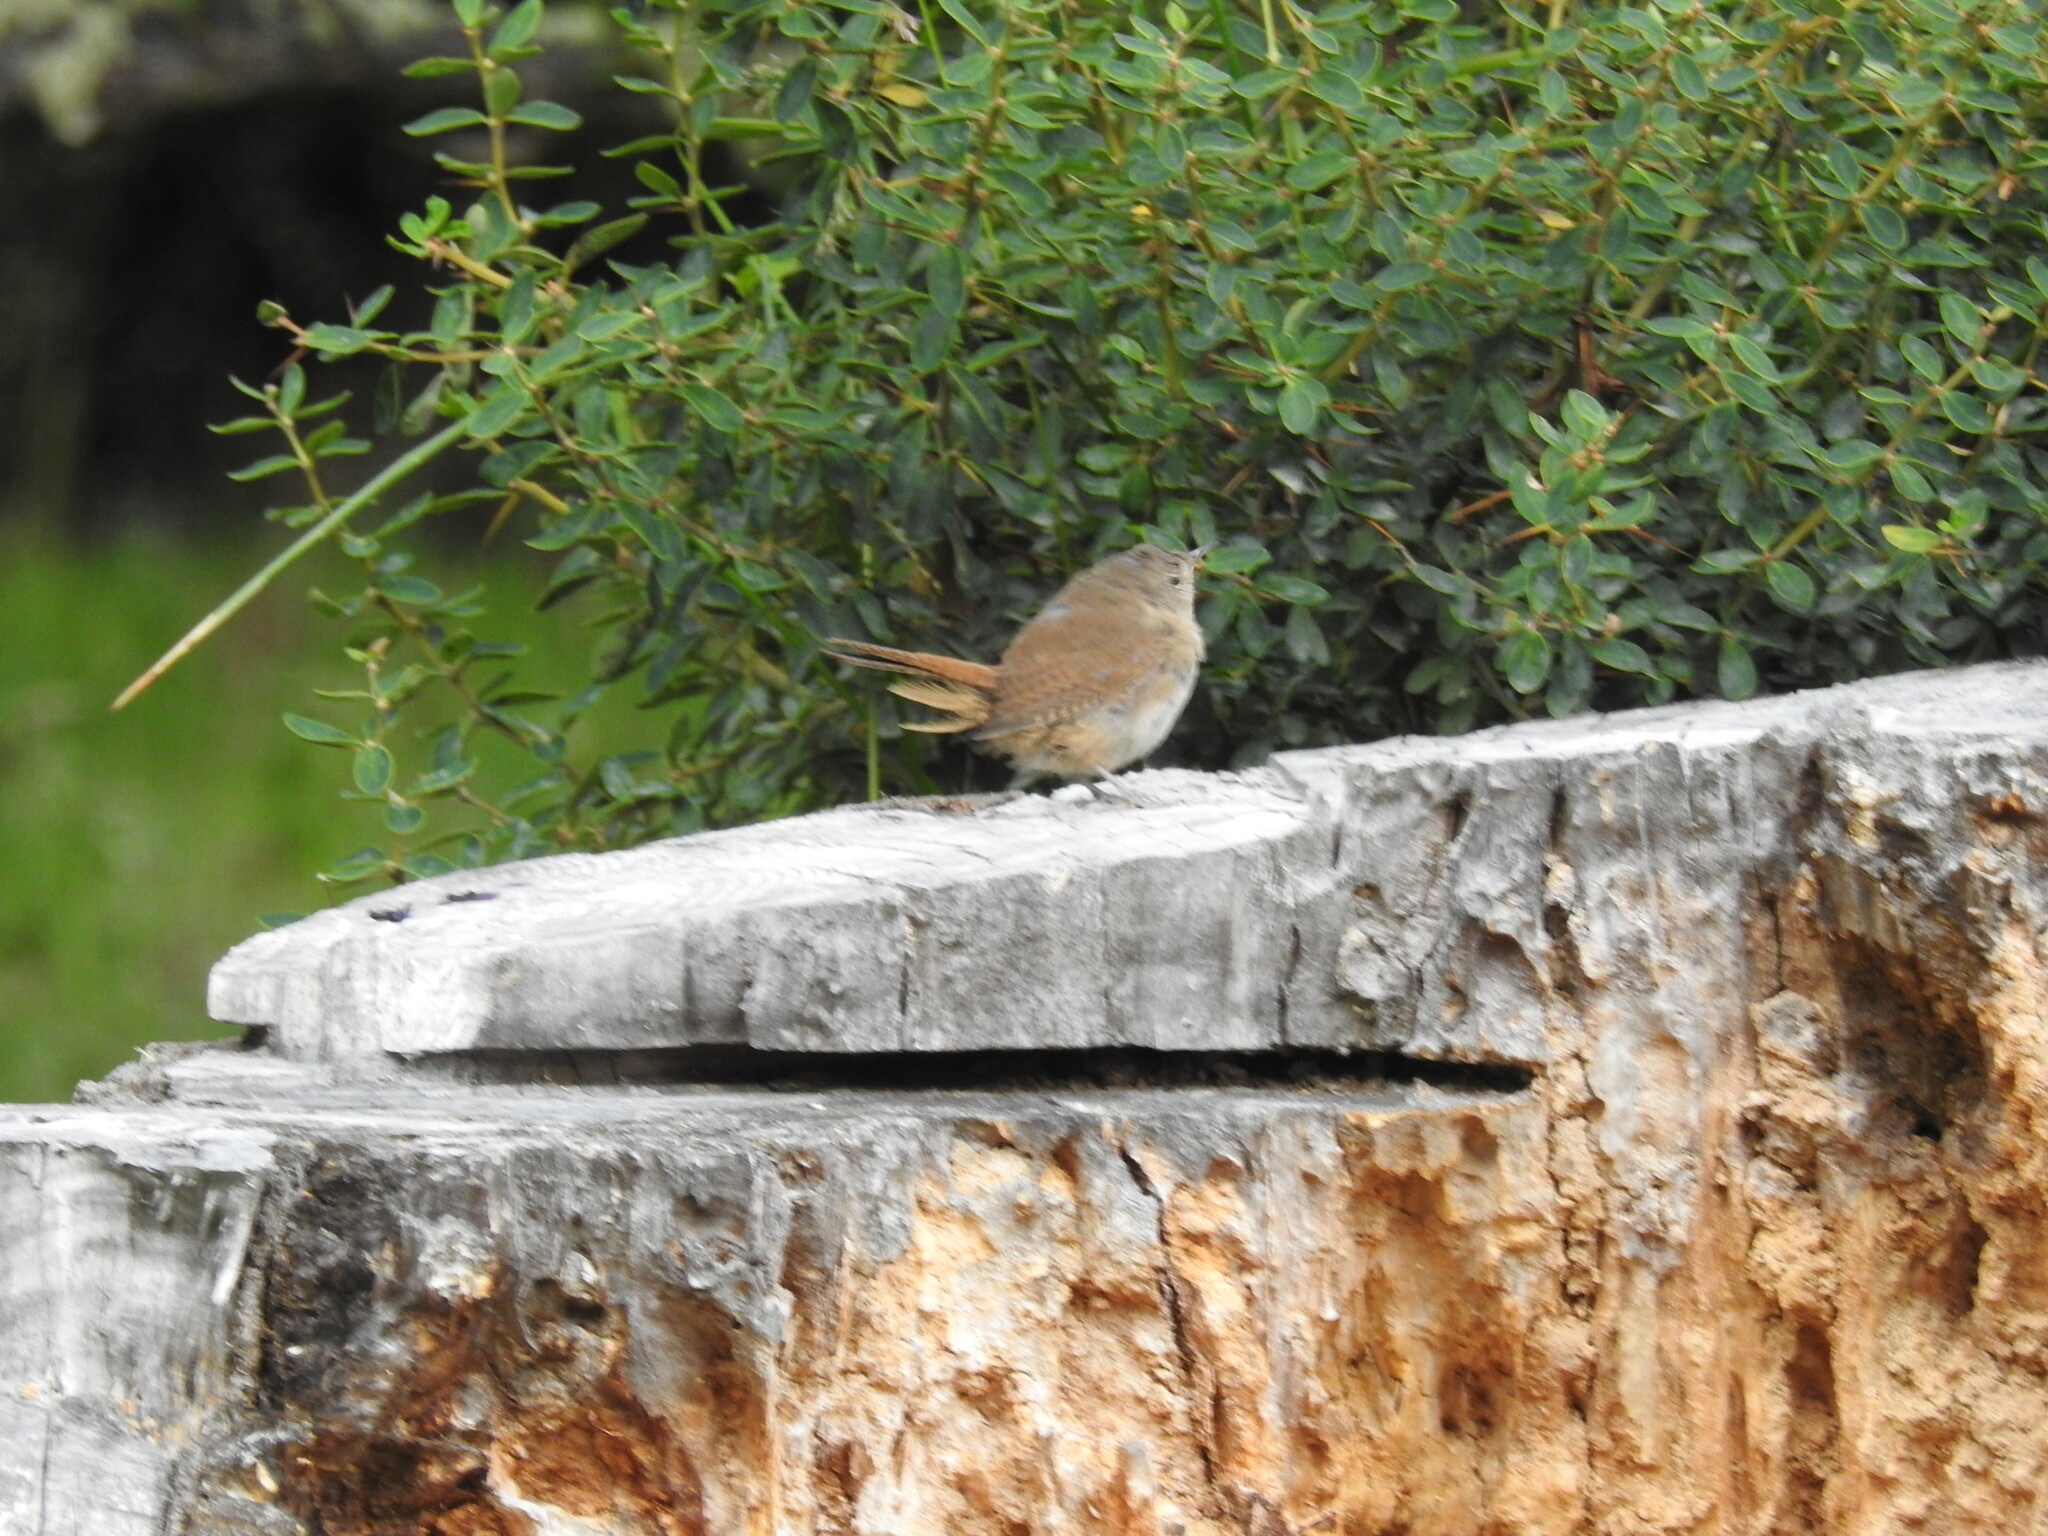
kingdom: Animalia
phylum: Chordata
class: Aves
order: Passeriformes
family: Troglodytidae
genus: Troglodytes
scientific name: Troglodytes aedon
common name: House wren
